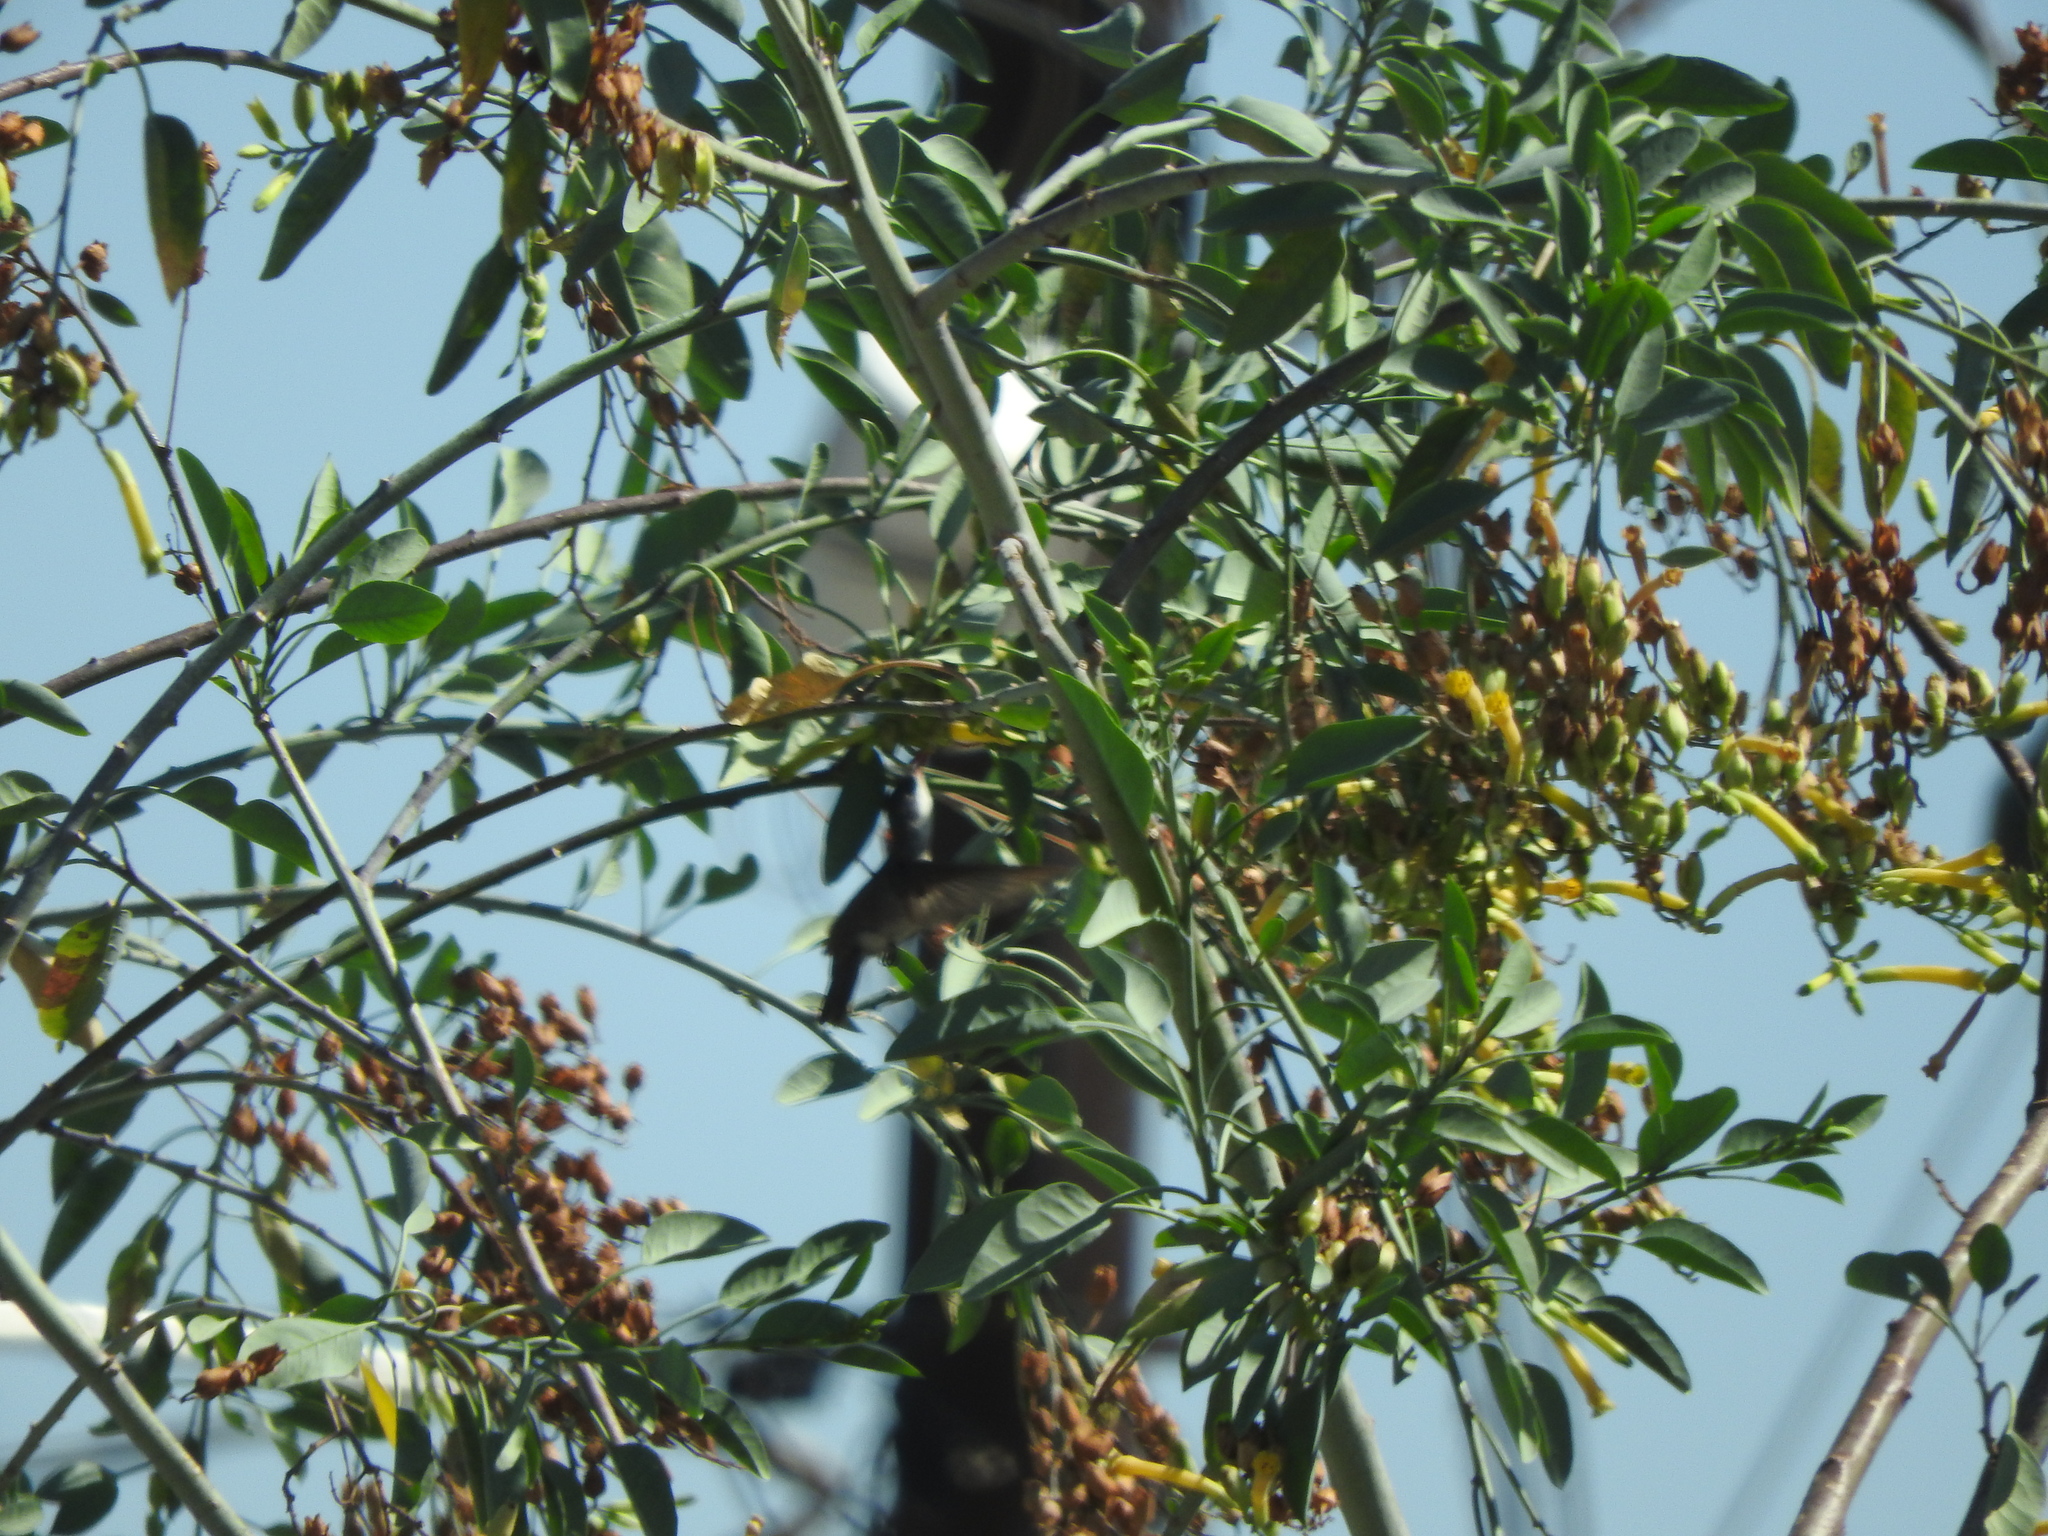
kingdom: Animalia
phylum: Chordata
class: Aves
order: Apodiformes
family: Trochilidae
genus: Leucolia
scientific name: Leucolia violiceps
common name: Violet-crowned hummingbird
